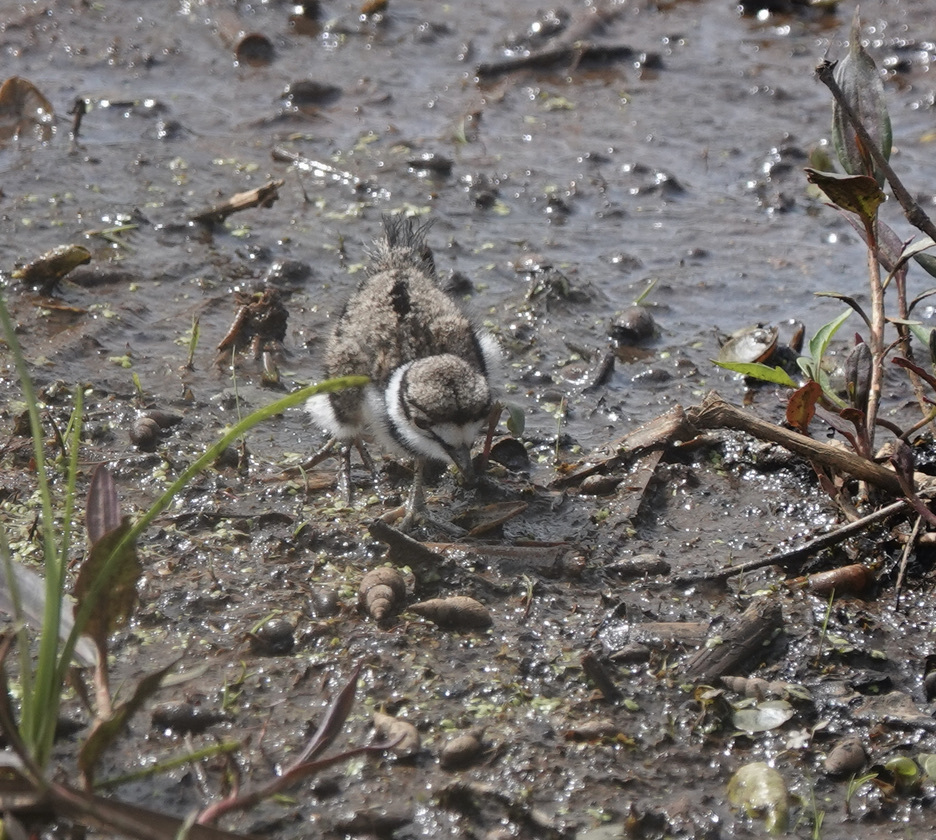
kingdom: Animalia
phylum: Chordata
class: Aves
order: Charadriiformes
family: Charadriidae
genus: Charadrius
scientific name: Charadrius vociferus
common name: Killdeer
